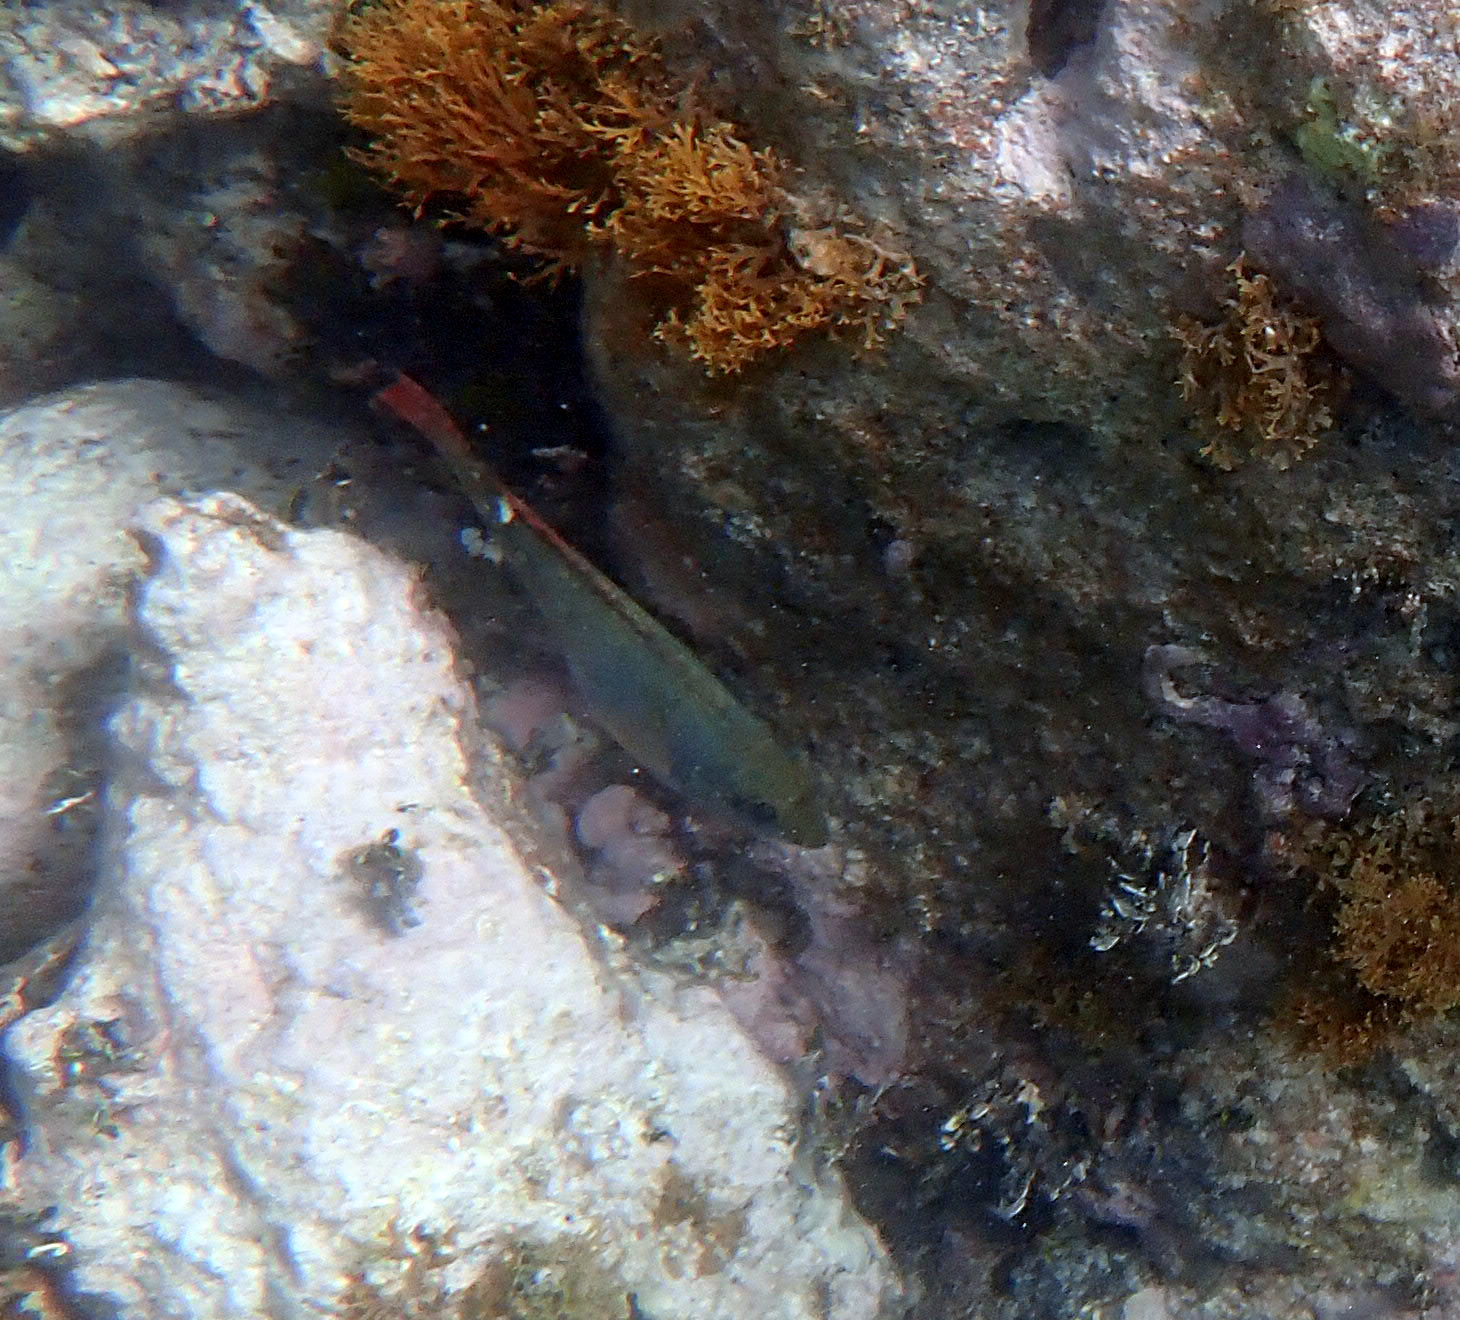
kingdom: Animalia
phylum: Chordata
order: Perciformes
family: Scaridae
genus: Sparisoma
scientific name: Sparisoma aurofrenatum
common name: Redband parrotfish
